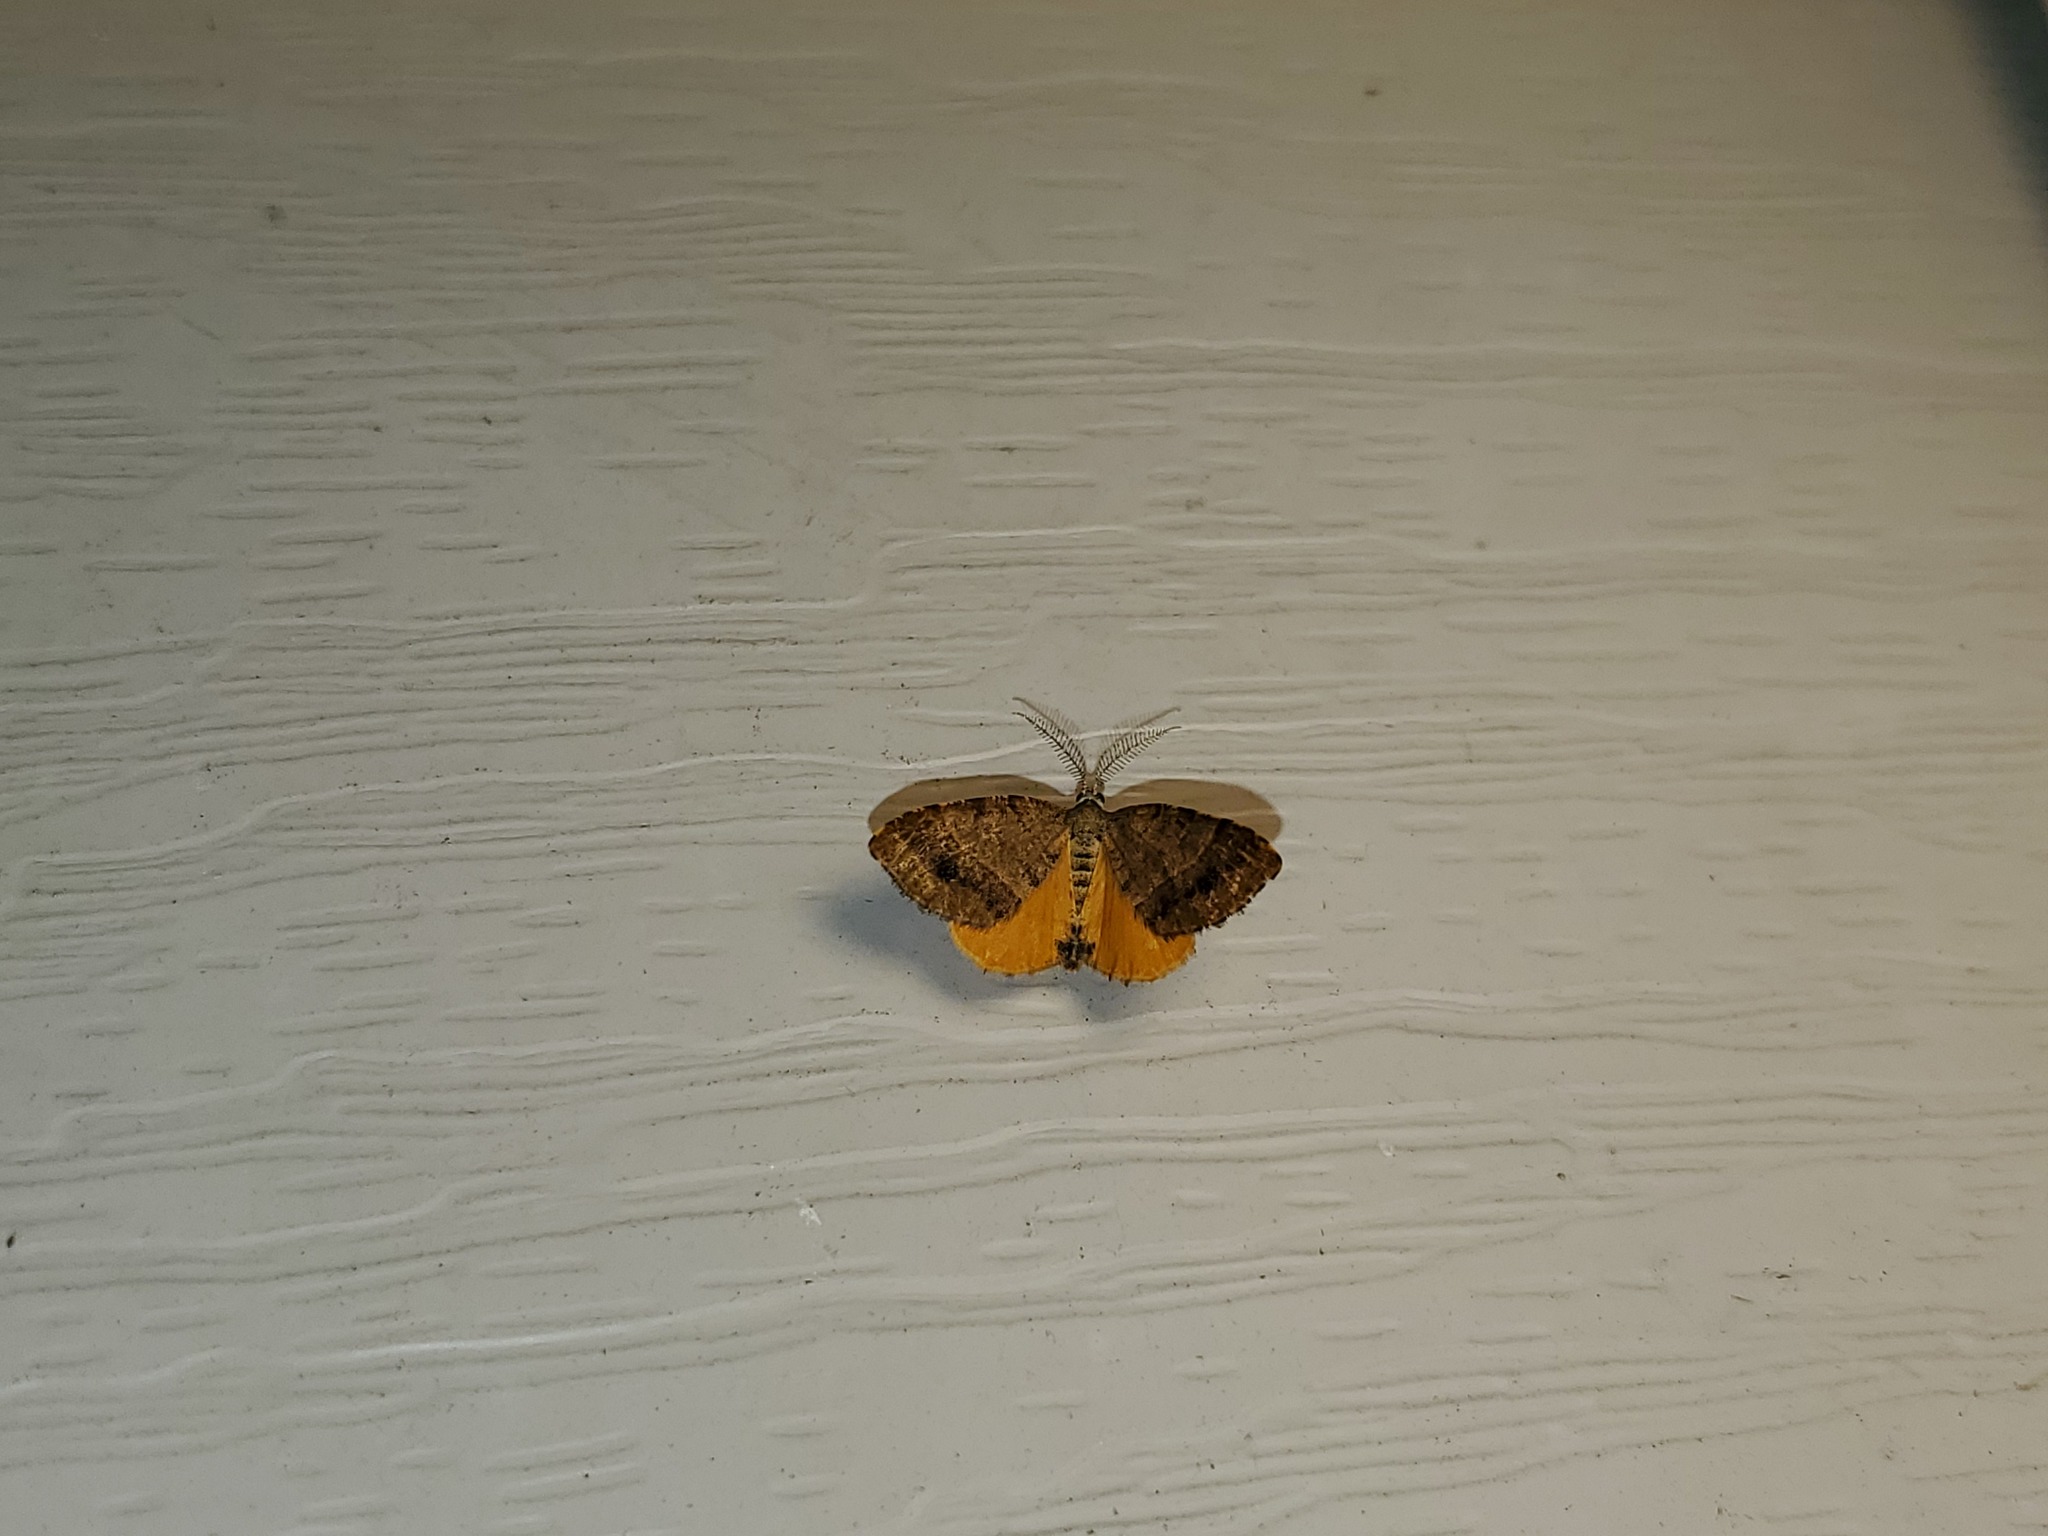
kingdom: Animalia
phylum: Arthropoda
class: Insecta
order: Lepidoptera
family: Geometridae
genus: Mellilla
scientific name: Mellilla xanthometata
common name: Orange wing moth
